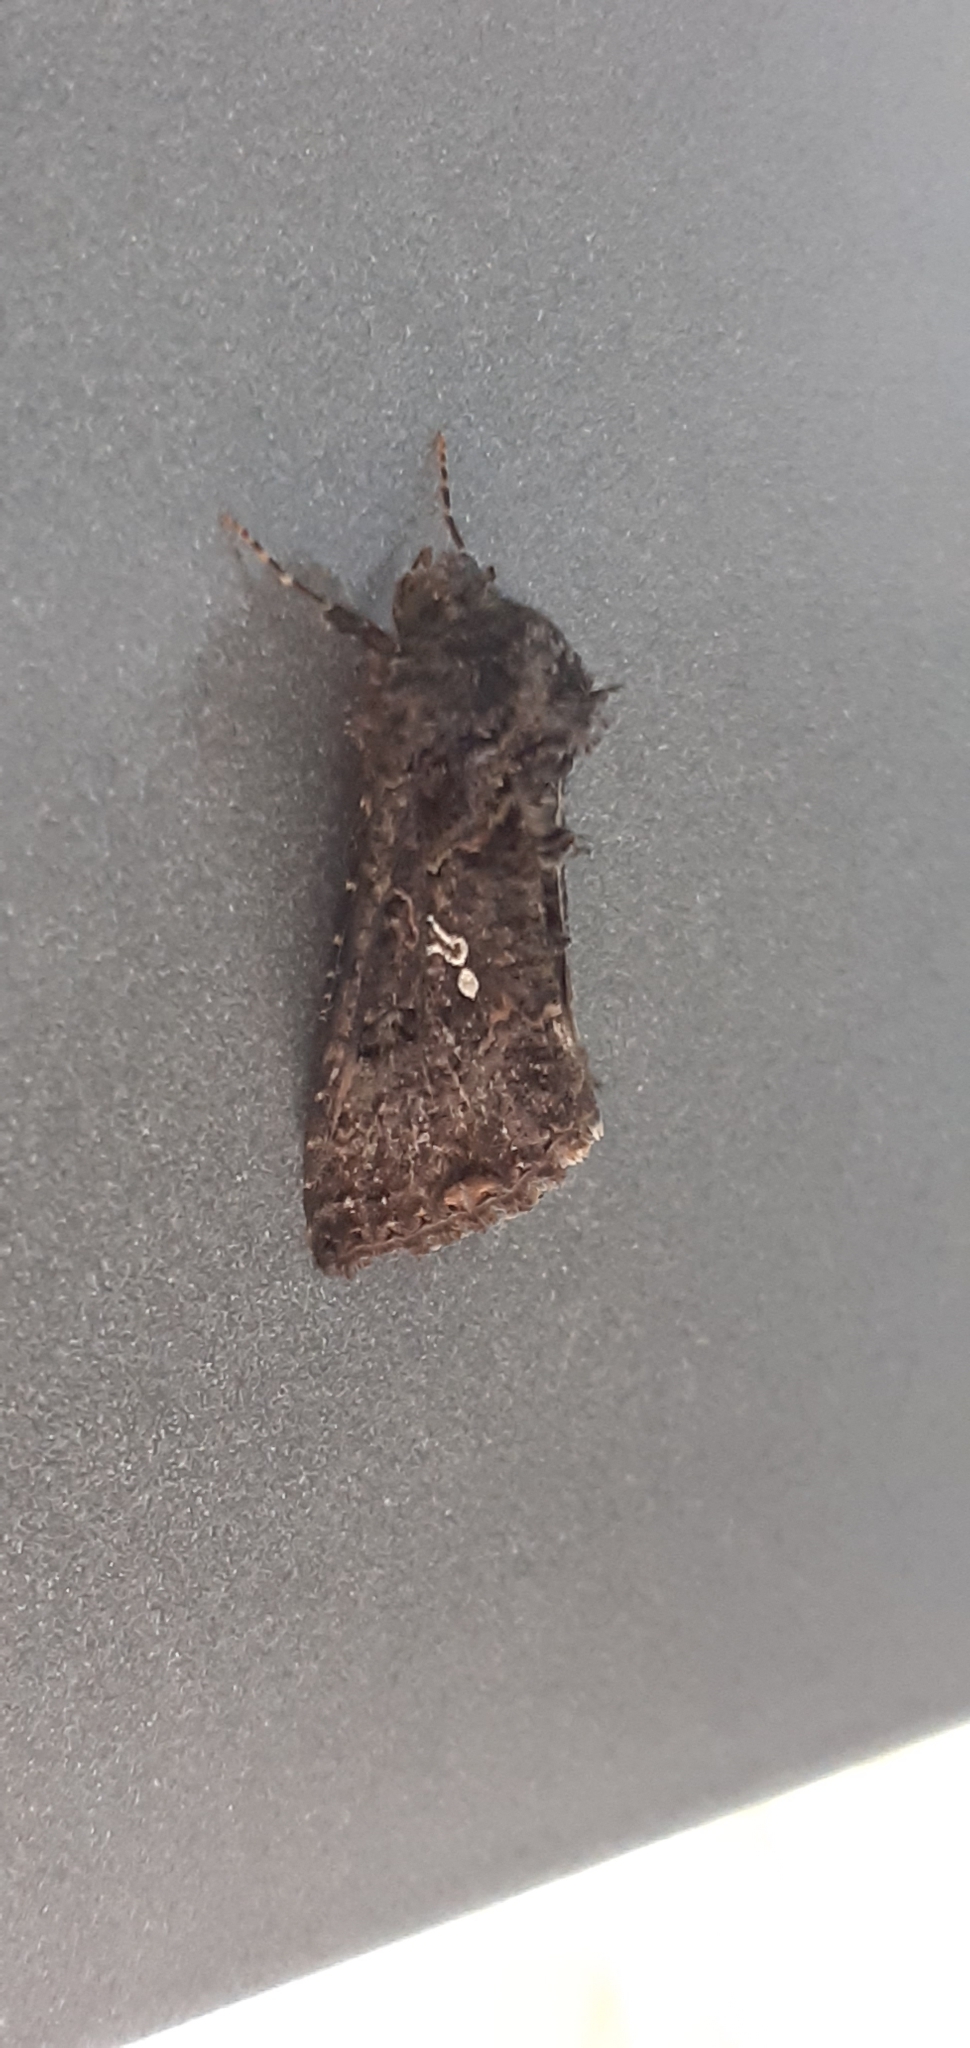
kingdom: Animalia
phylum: Arthropoda
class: Insecta
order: Lepidoptera
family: Noctuidae
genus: Ctenoplusia
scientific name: Ctenoplusia limbirena
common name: Scar bank gem
